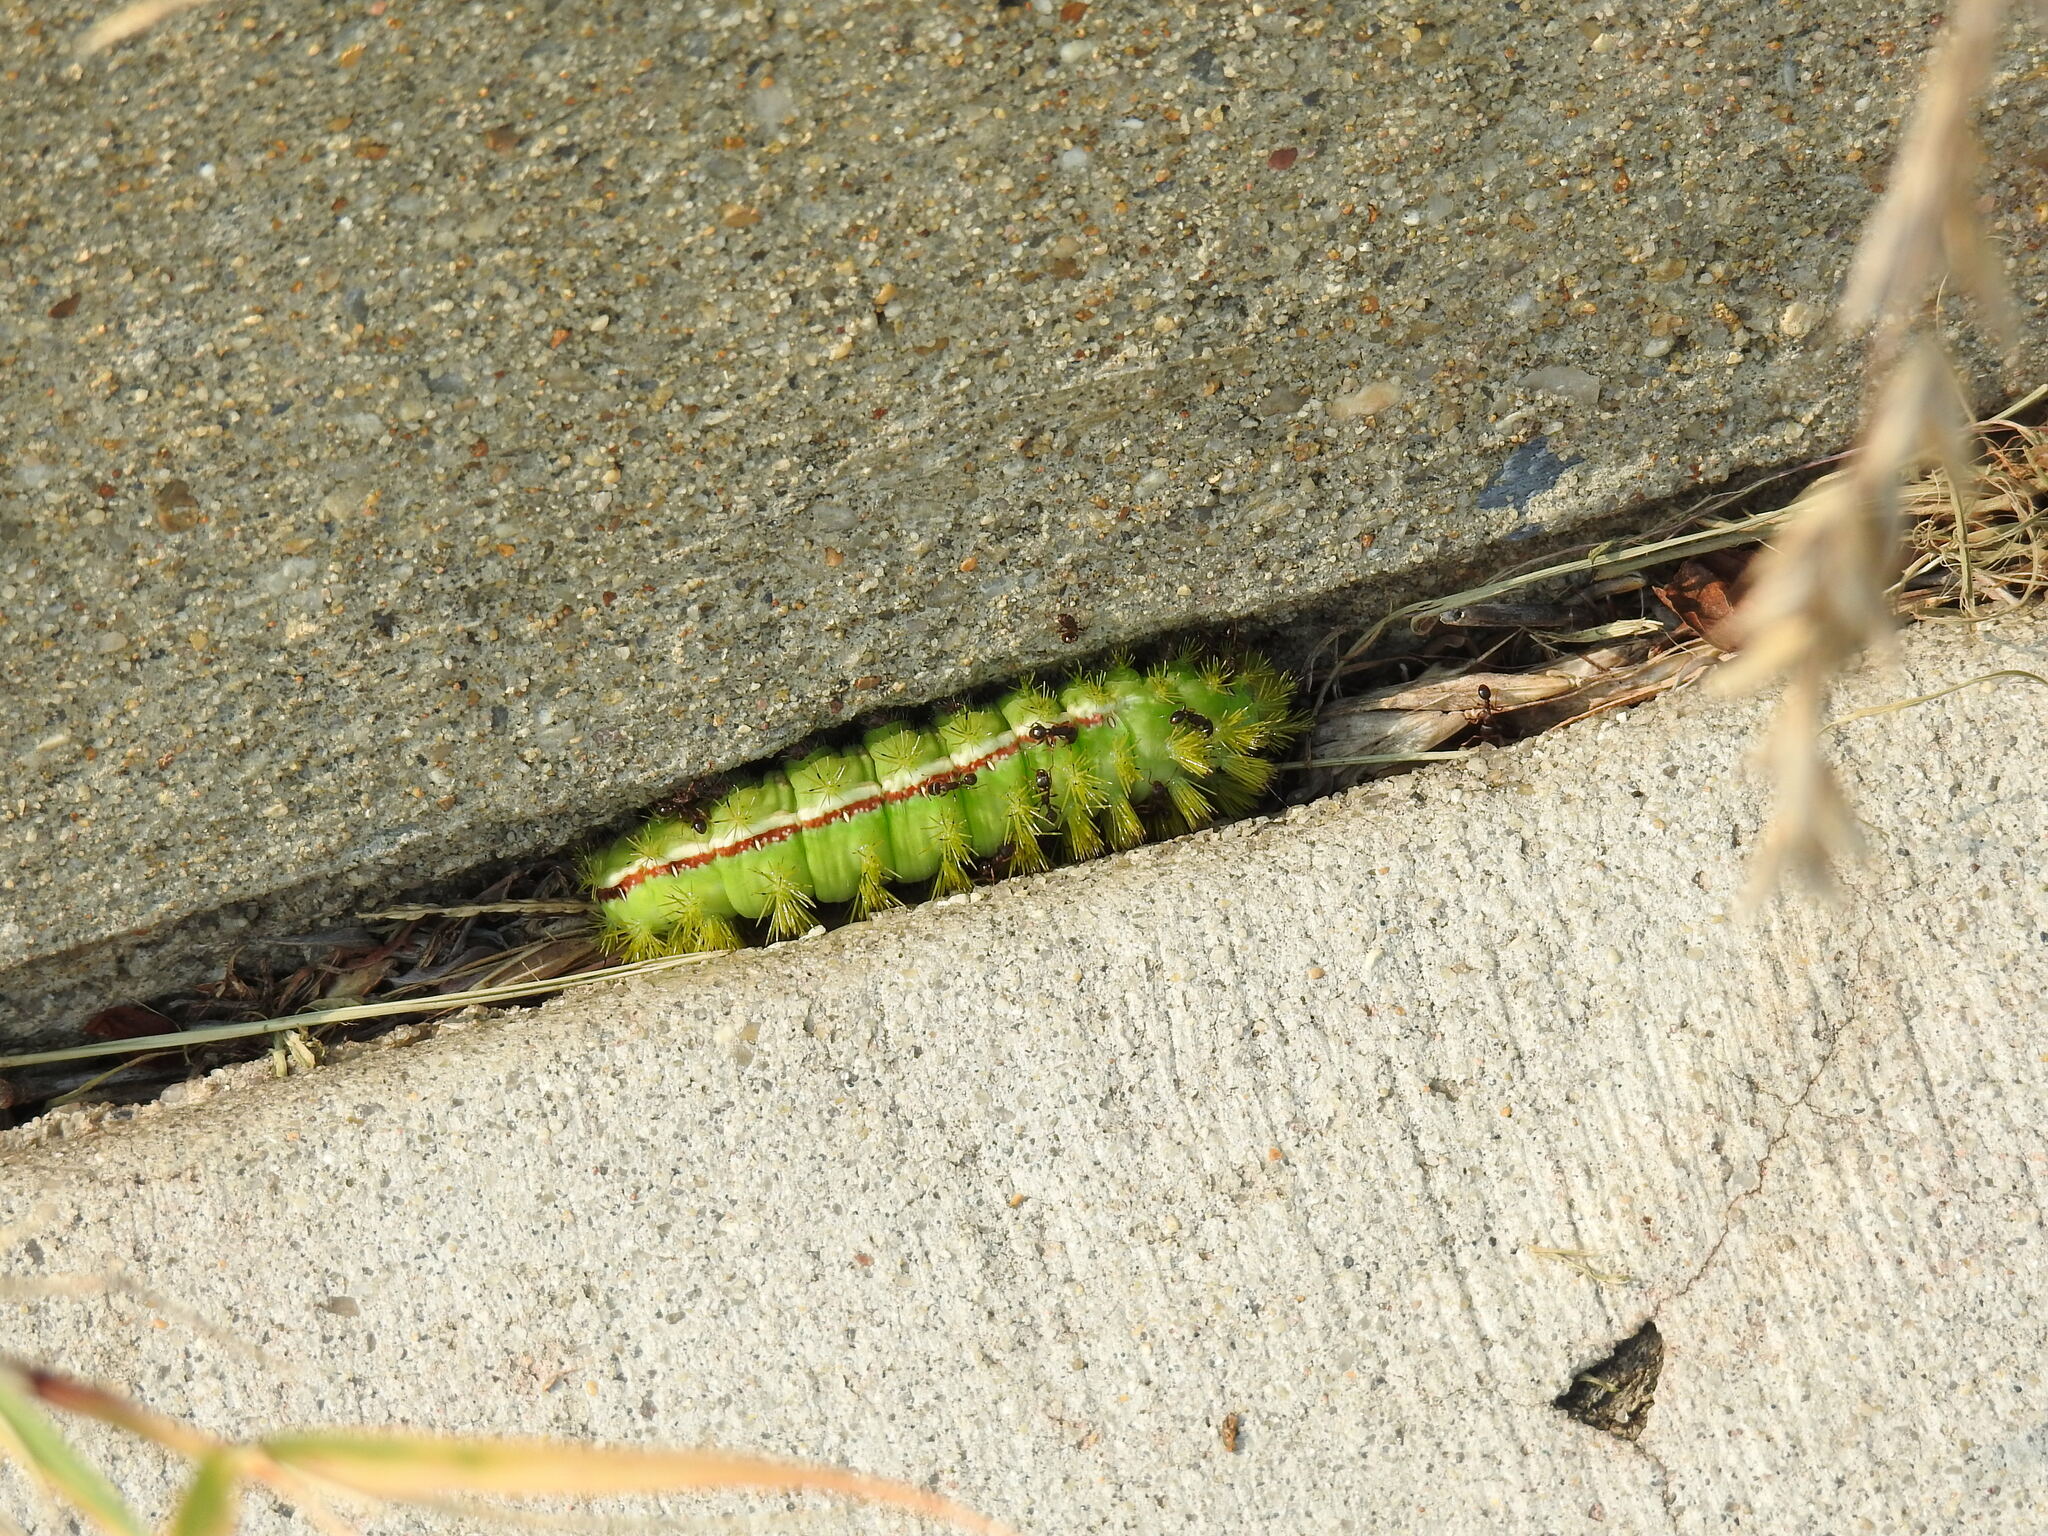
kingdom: Animalia
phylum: Arthropoda
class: Insecta
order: Lepidoptera
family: Saturniidae
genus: Automeris
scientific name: Automeris io
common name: Io moth
